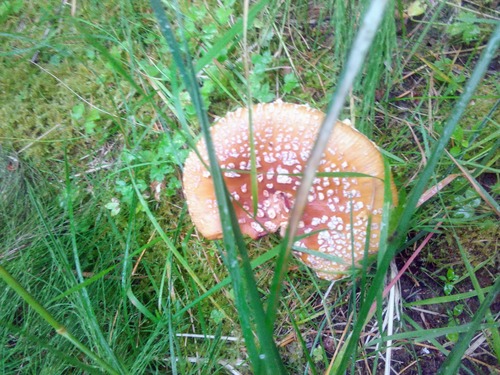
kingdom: Fungi
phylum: Basidiomycota
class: Agaricomycetes
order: Agaricales
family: Amanitaceae
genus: Amanita
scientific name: Amanita regalis
